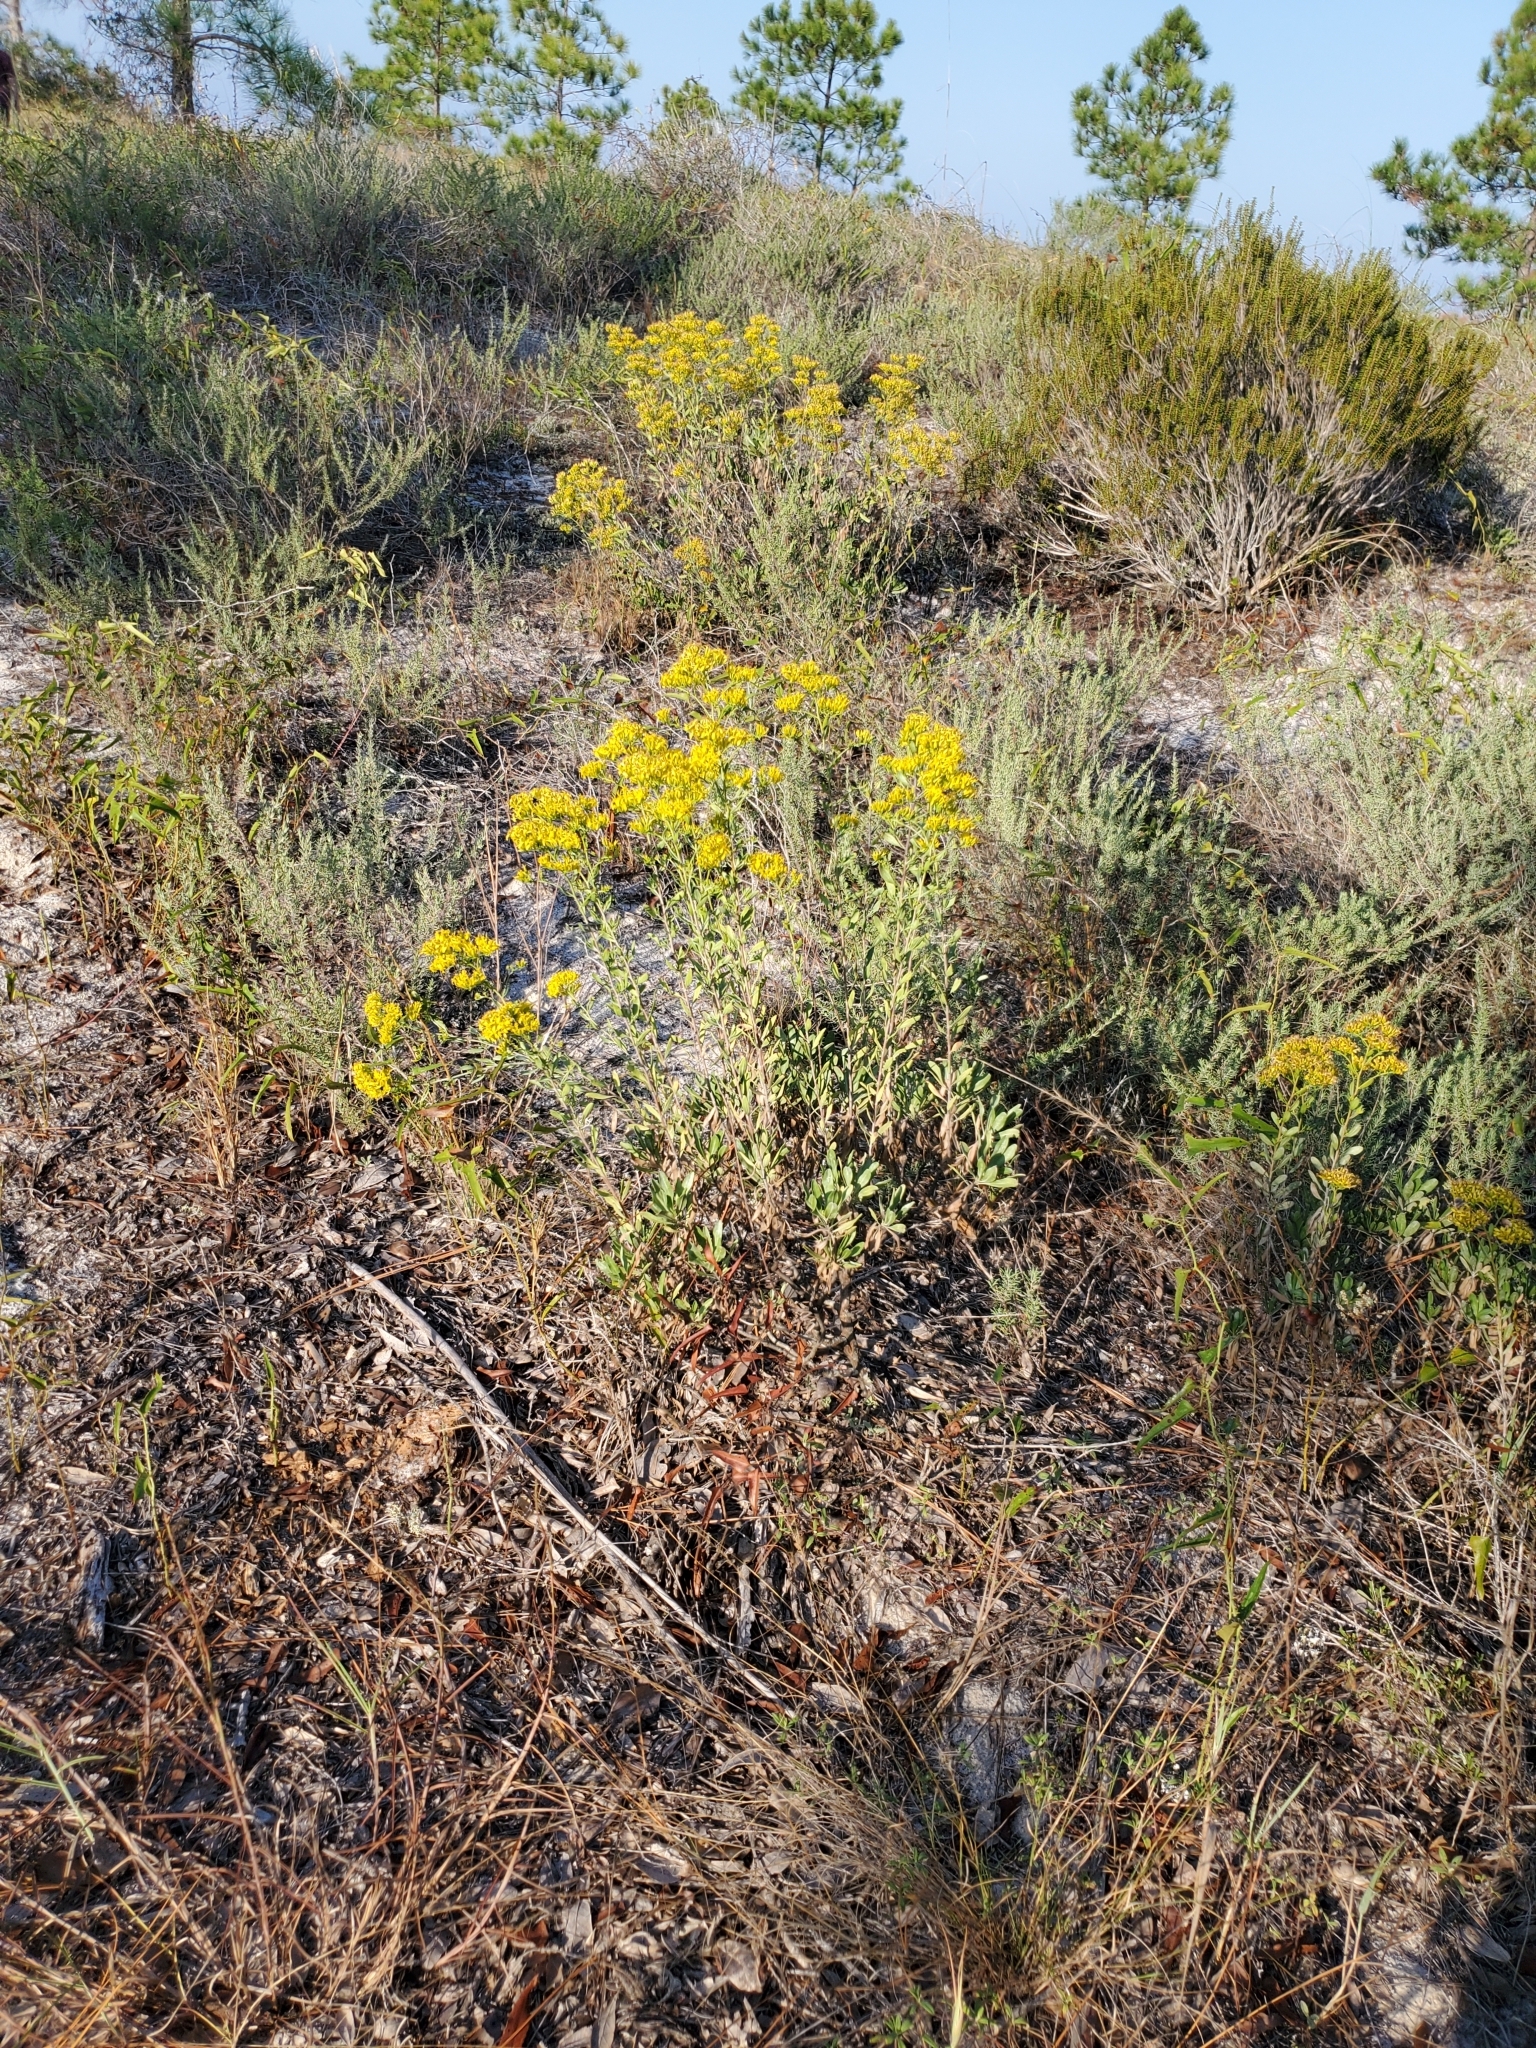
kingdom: Plantae
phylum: Tracheophyta
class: Magnoliopsida
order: Asterales
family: Asteraceae
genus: Chrysoma
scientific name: Chrysoma pauciflosculosa
